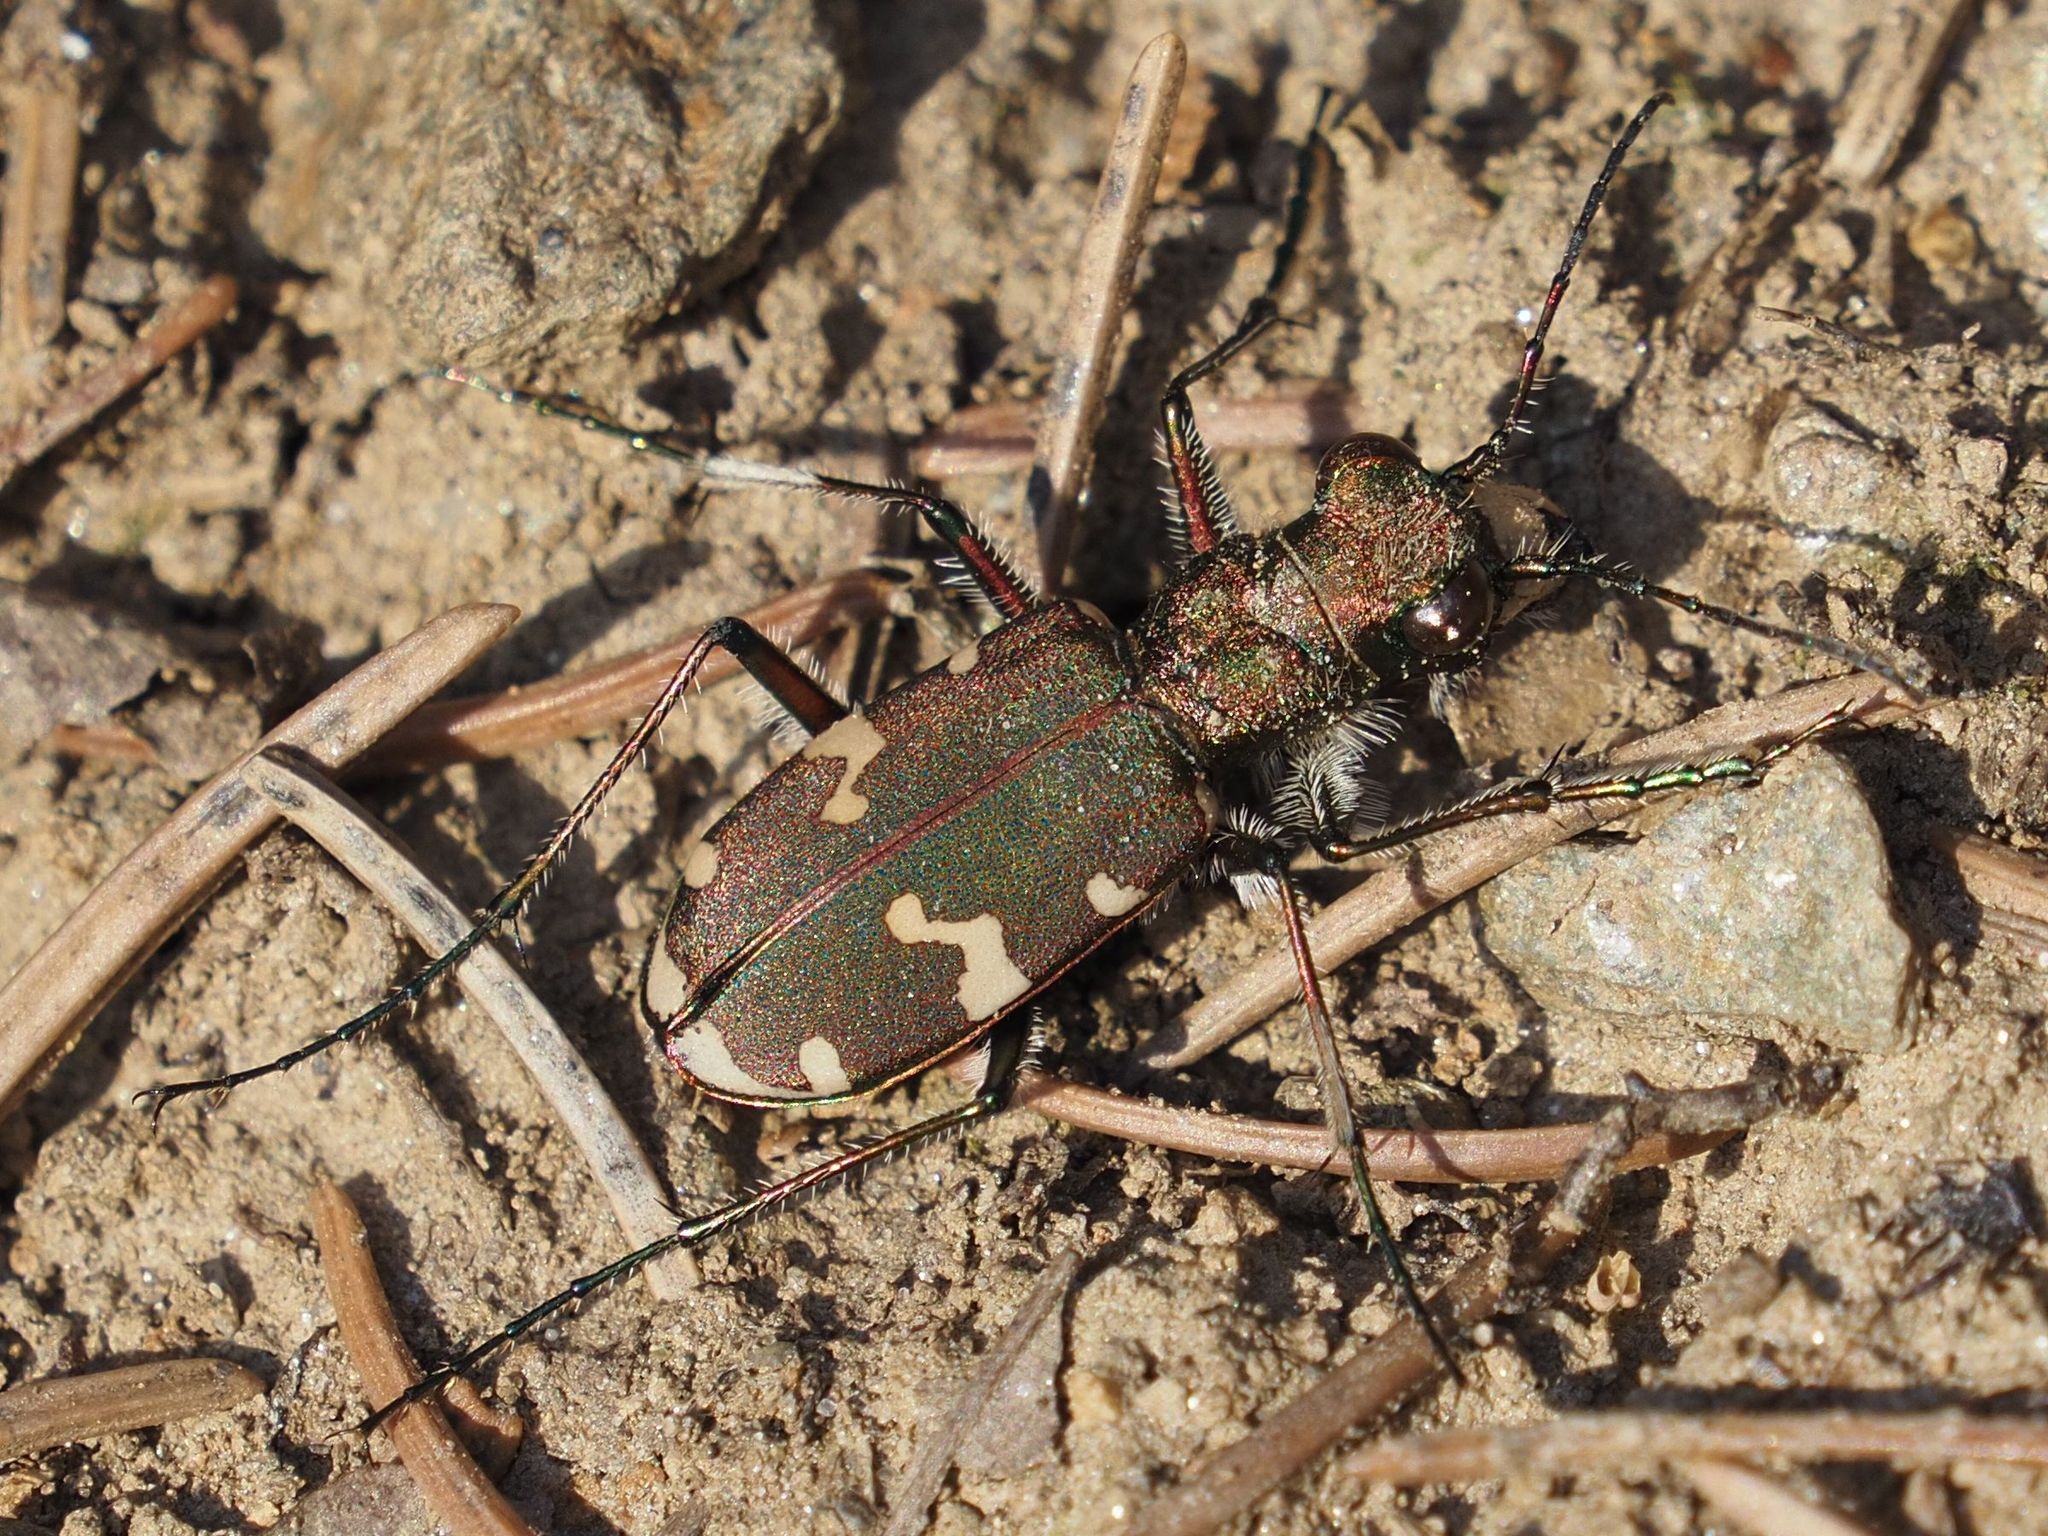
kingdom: Animalia
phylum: Arthropoda
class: Insecta
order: Coleoptera
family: Carabidae
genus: Cicindela
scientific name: Cicindela sylvicola
